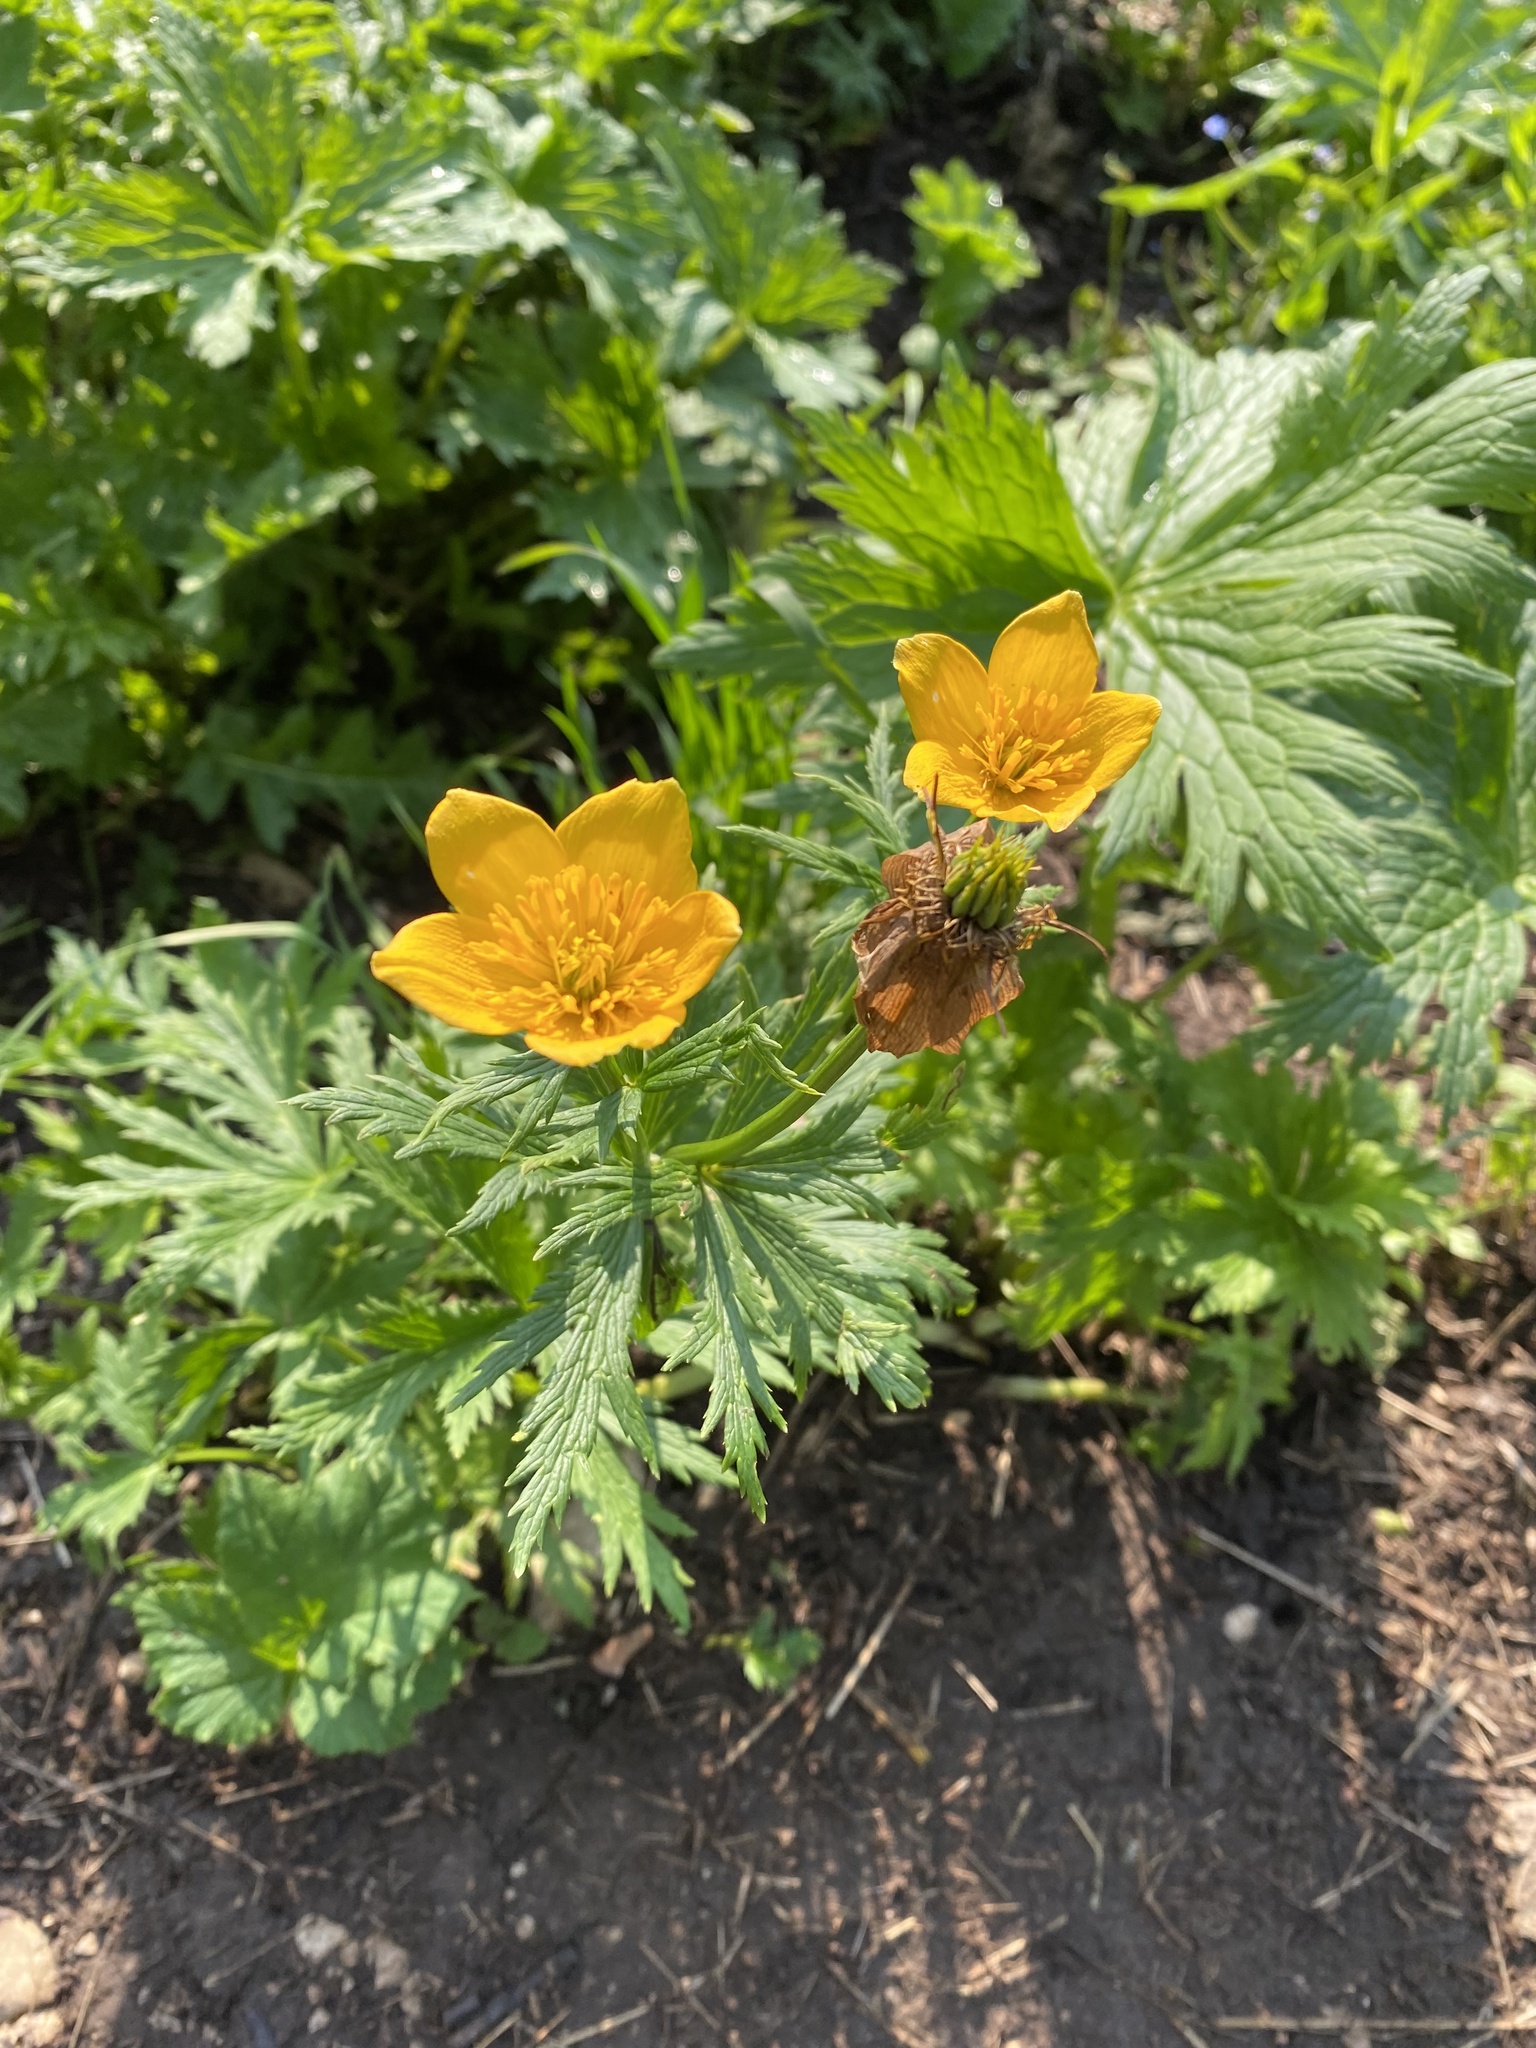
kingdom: Plantae
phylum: Tracheophyta
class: Magnoliopsida
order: Ranunculales
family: Ranunculaceae
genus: Trollius
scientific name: Trollius ranunculinus
